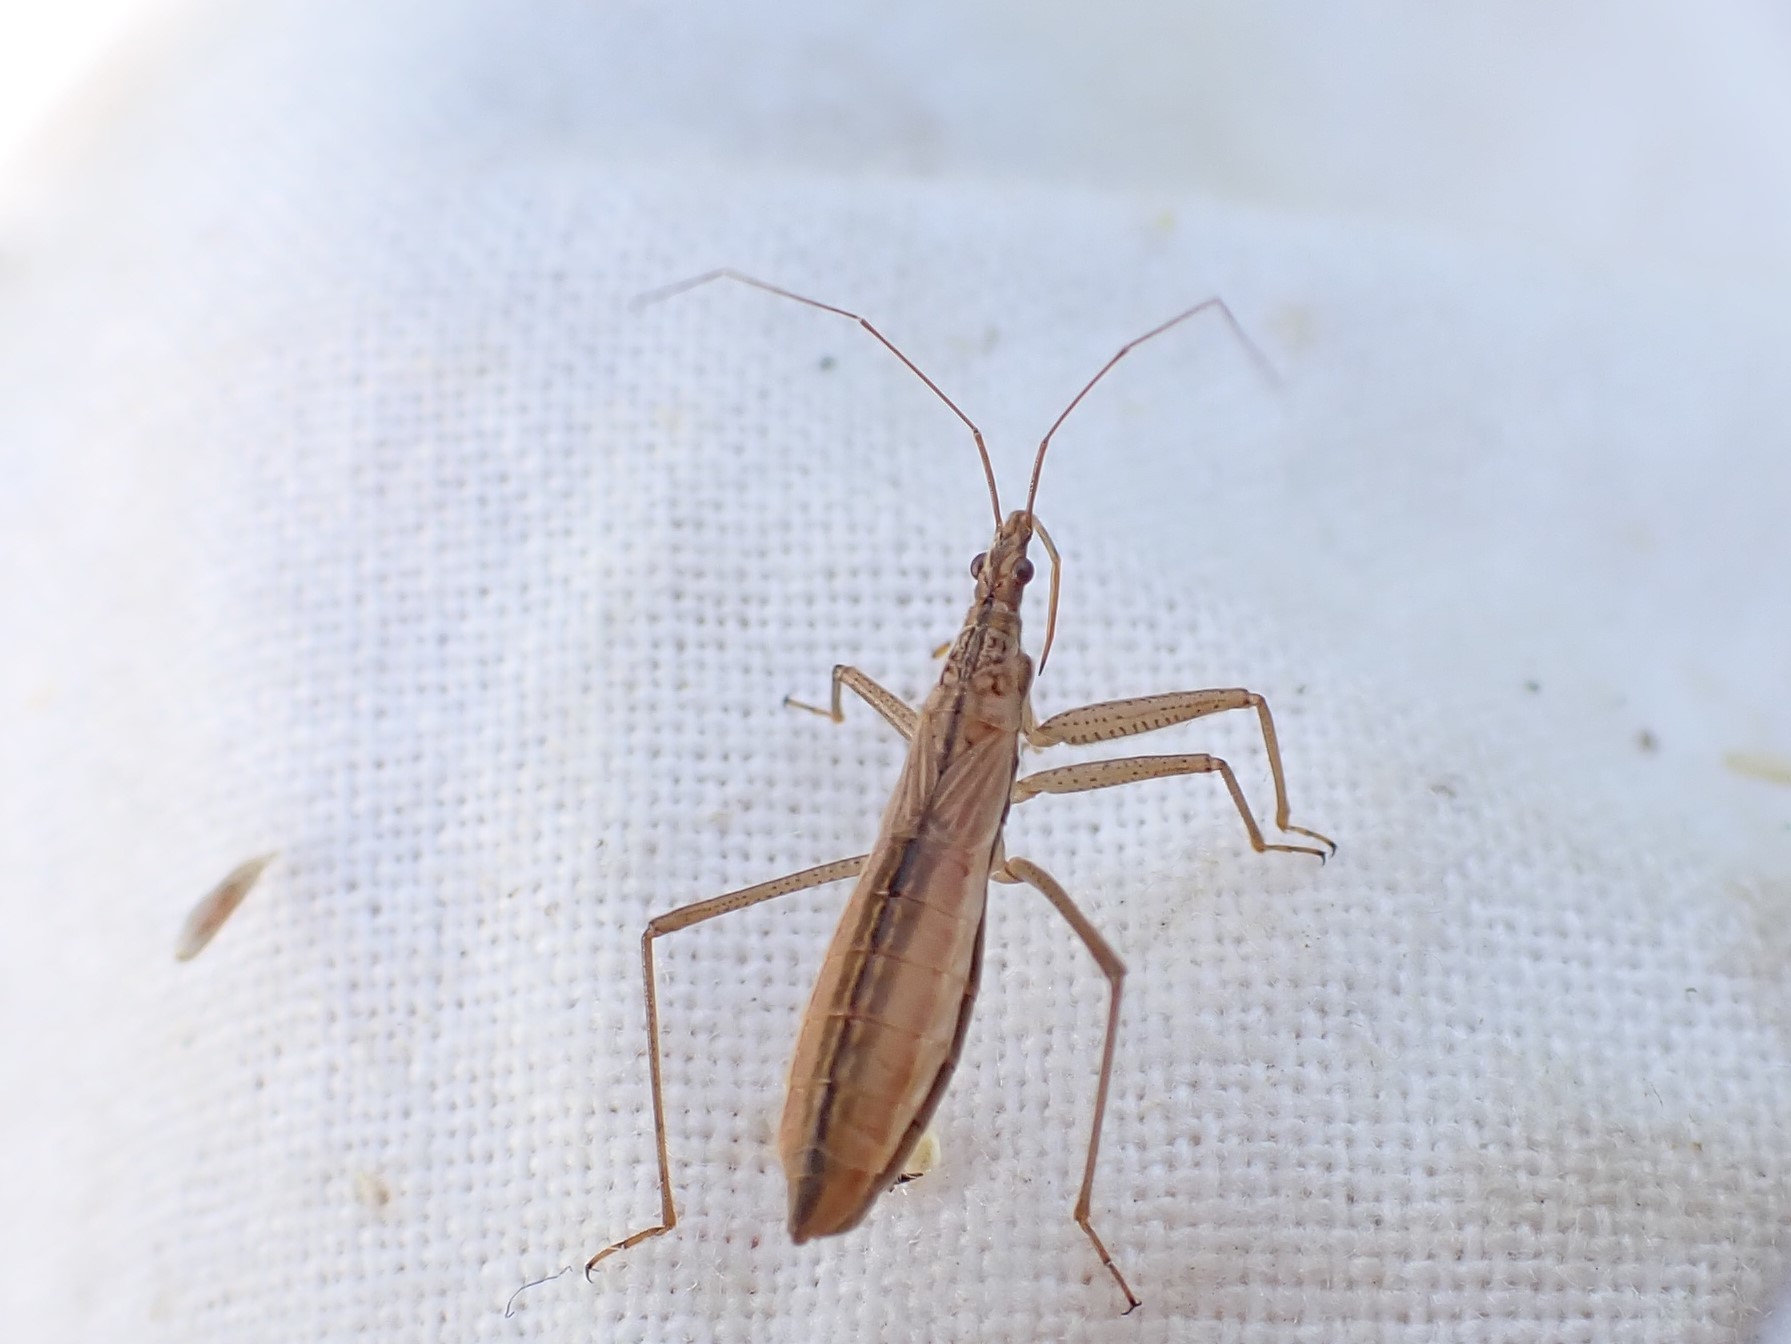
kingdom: Animalia
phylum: Arthropoda
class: Insecta
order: Hemiptera
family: Nabidae
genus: Nabis
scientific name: Nabis limbatus
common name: Marsh damselbug
